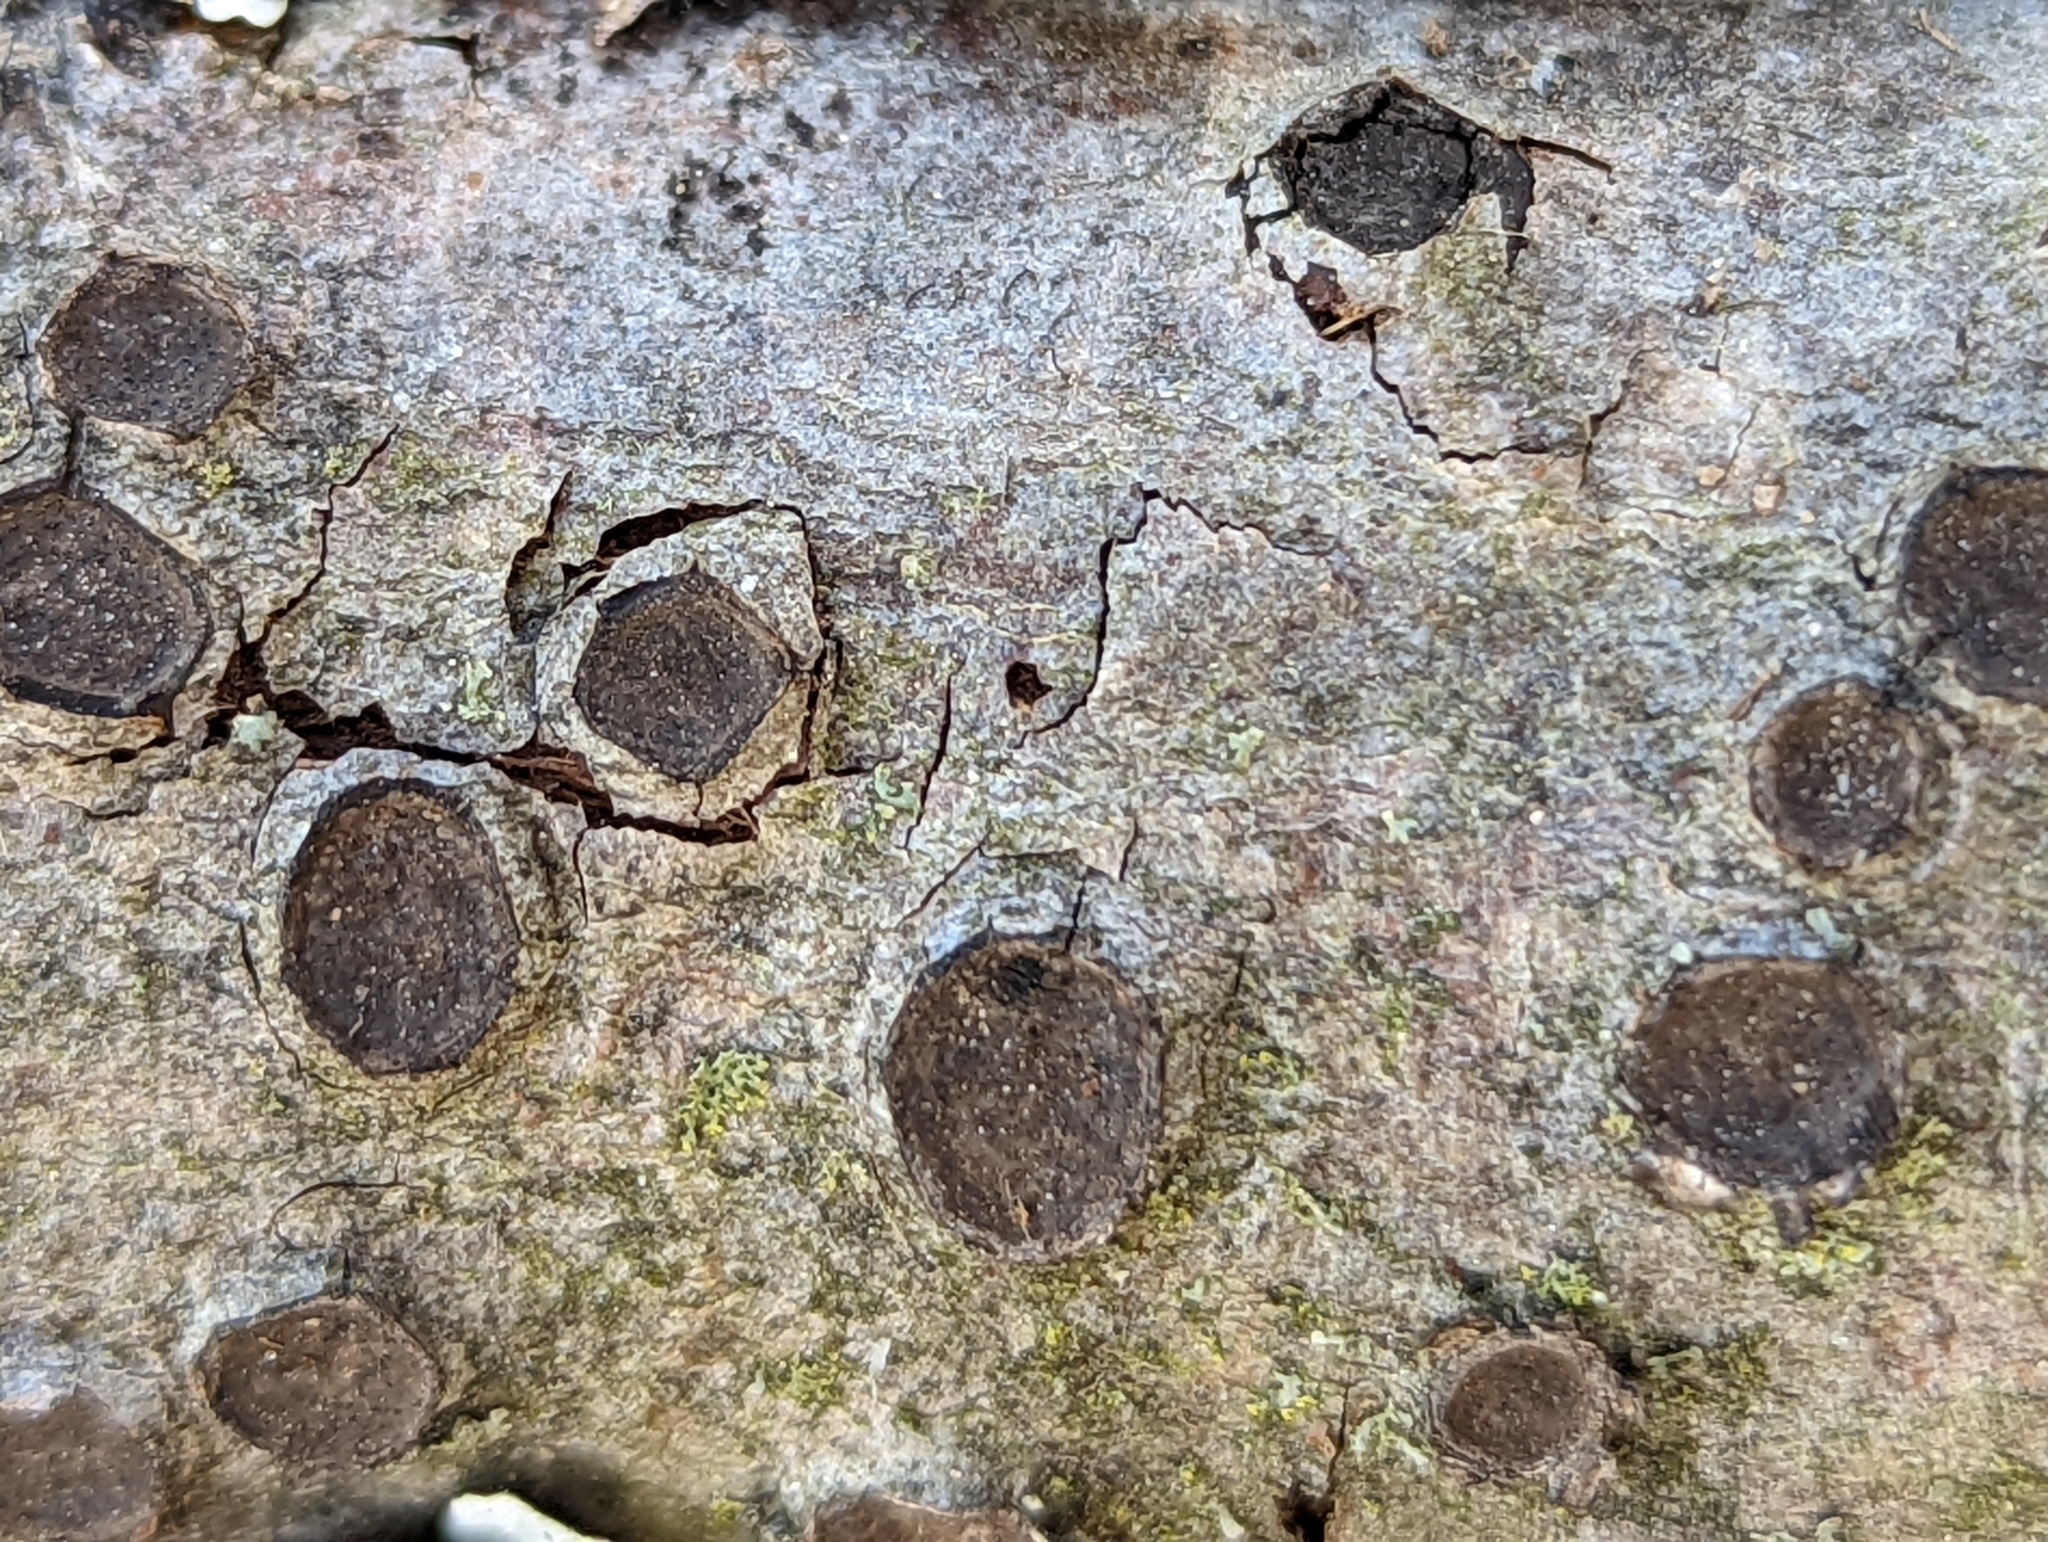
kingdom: Fungi
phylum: Ascomycota
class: Sordariomycetes
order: Xylariales
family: Graphostromataceae
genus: Biscogniauxia
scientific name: Biscogniauxia marginata
